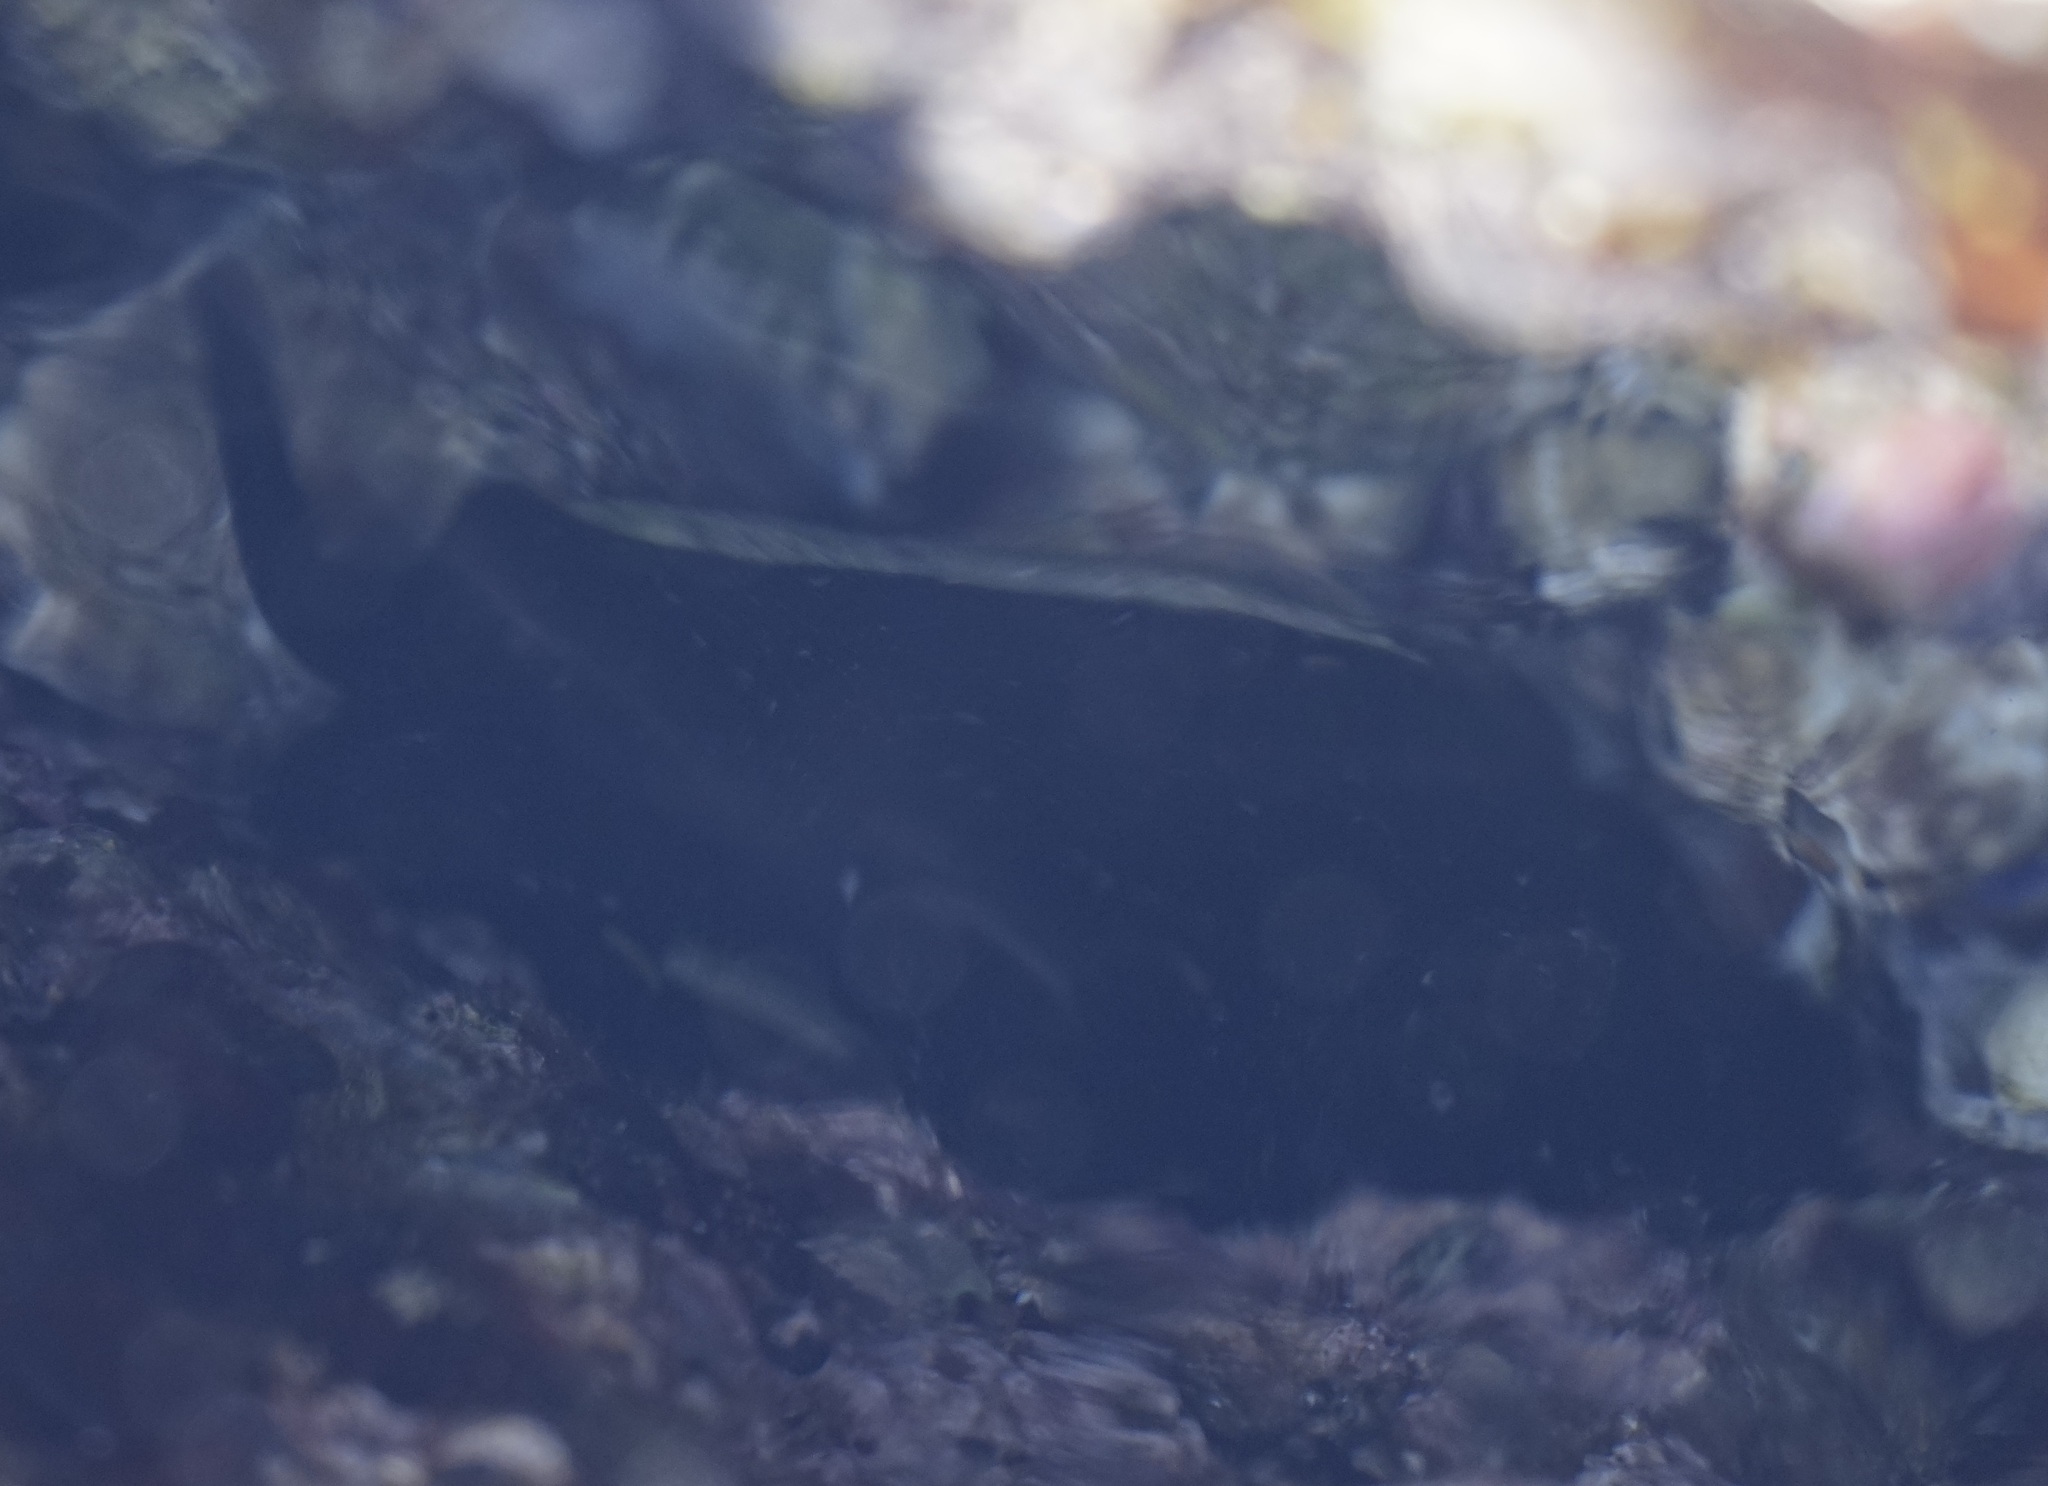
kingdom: Animalia
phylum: Mollusca
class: Gastropoda
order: Lepetellida
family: Fissurellidae
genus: Scutus
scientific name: Scutus antipodes
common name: Duckbill shell
